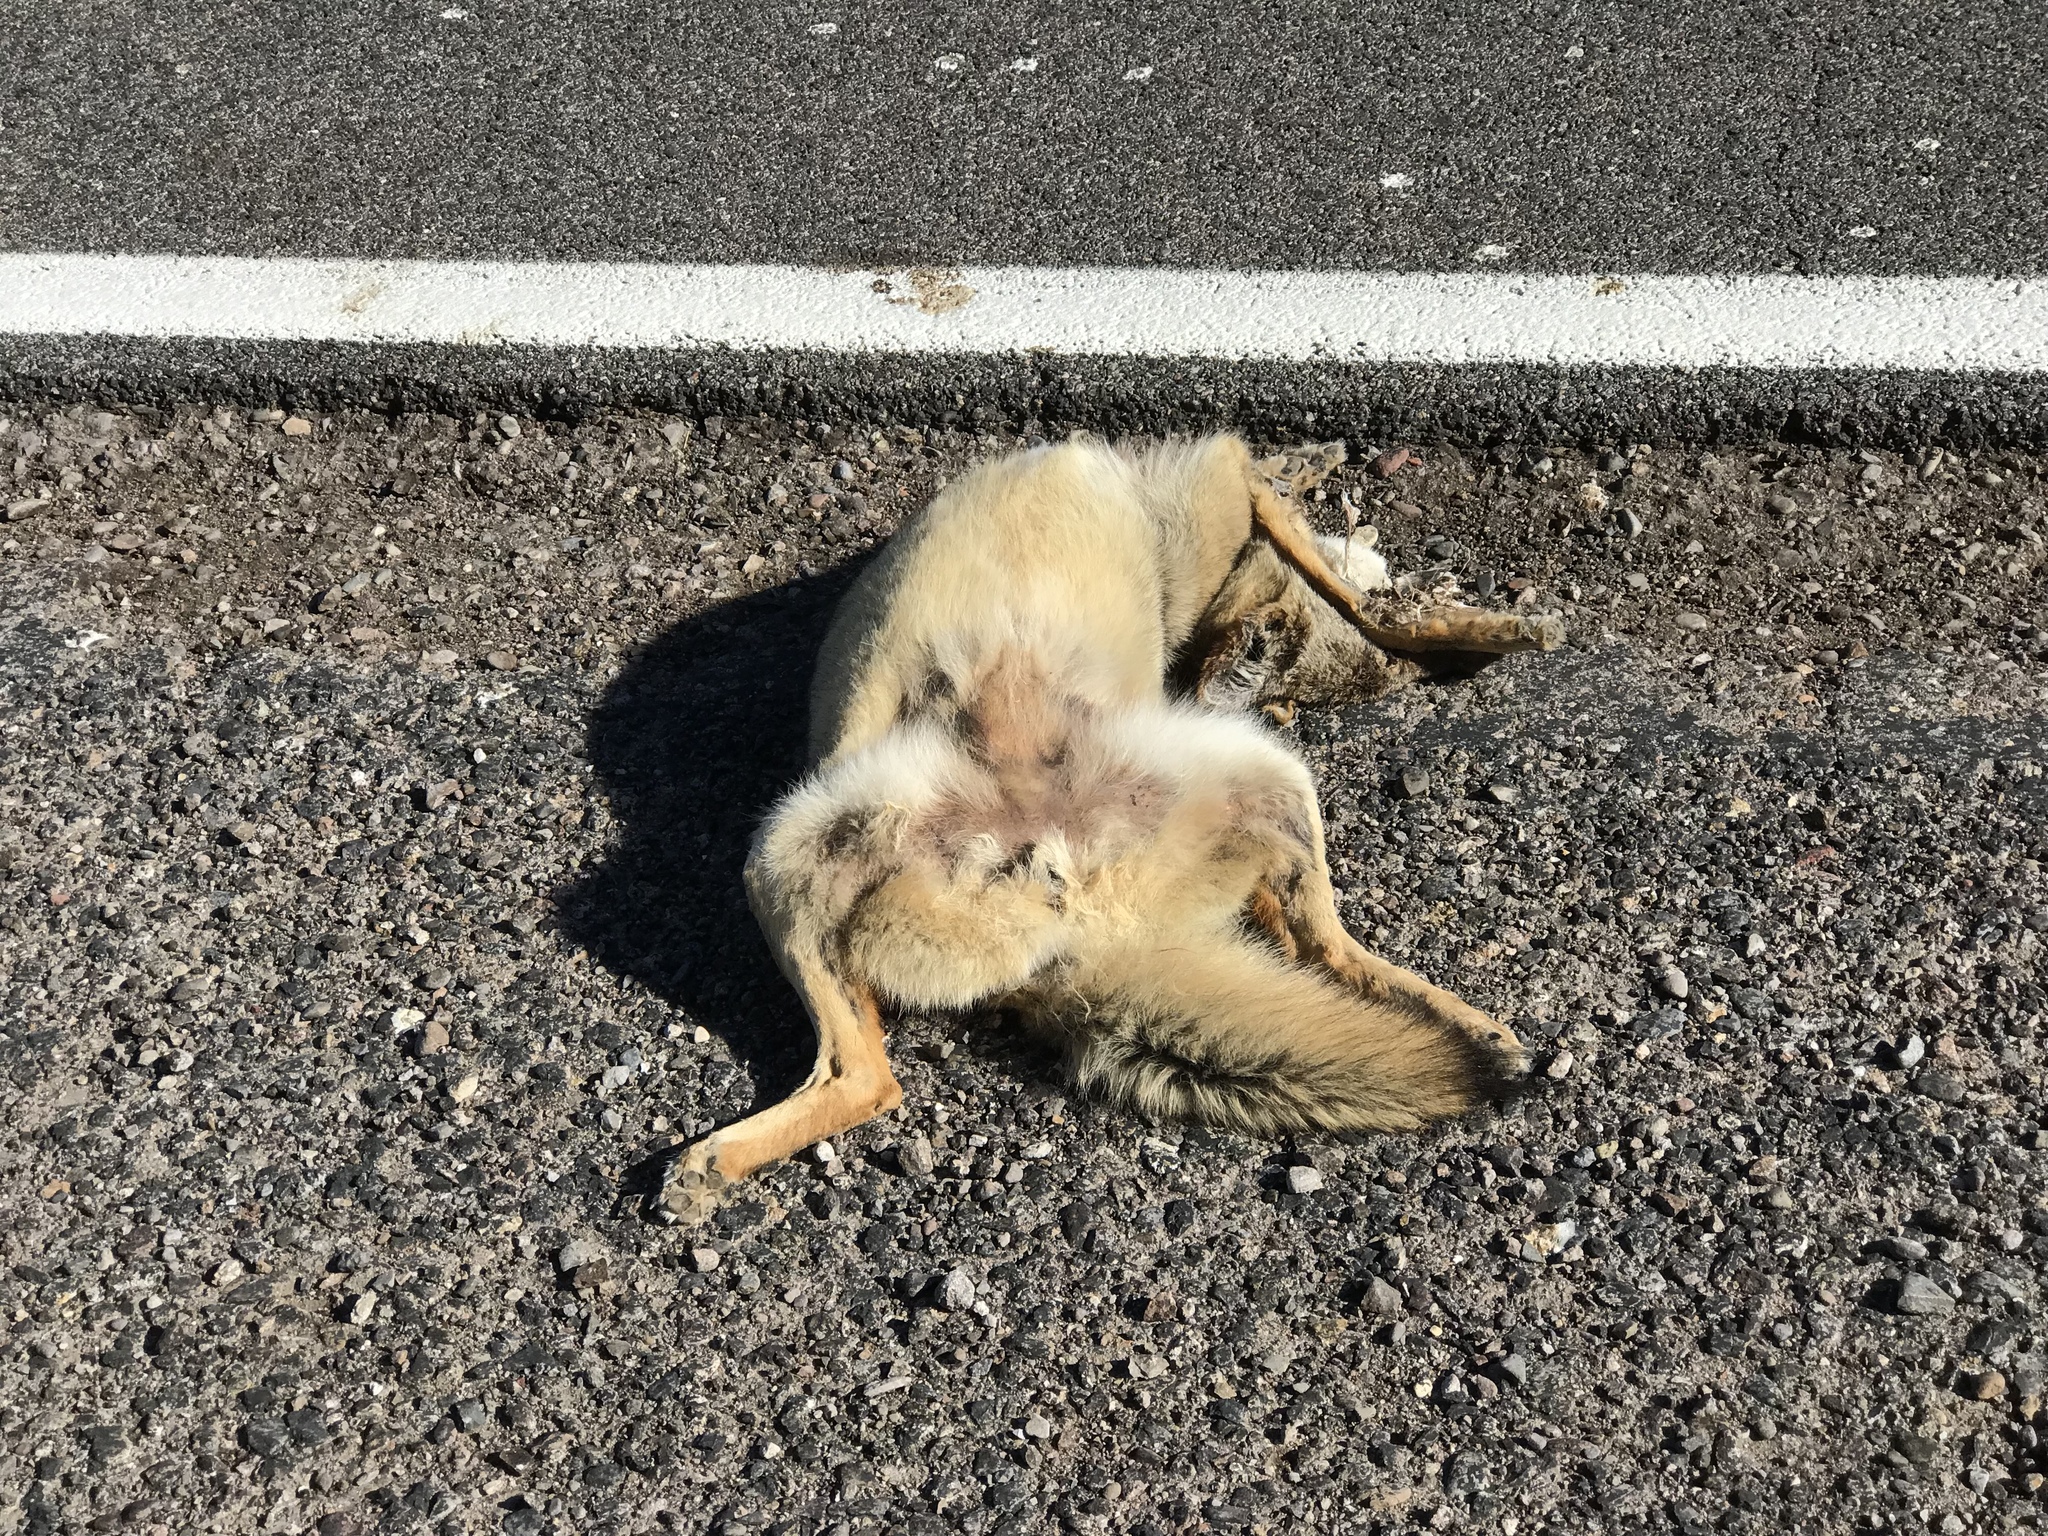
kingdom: Animalia
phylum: Chordata
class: Mammalia
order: Carnivora
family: Canidae
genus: Canis
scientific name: Canis latrans
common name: Coyote
